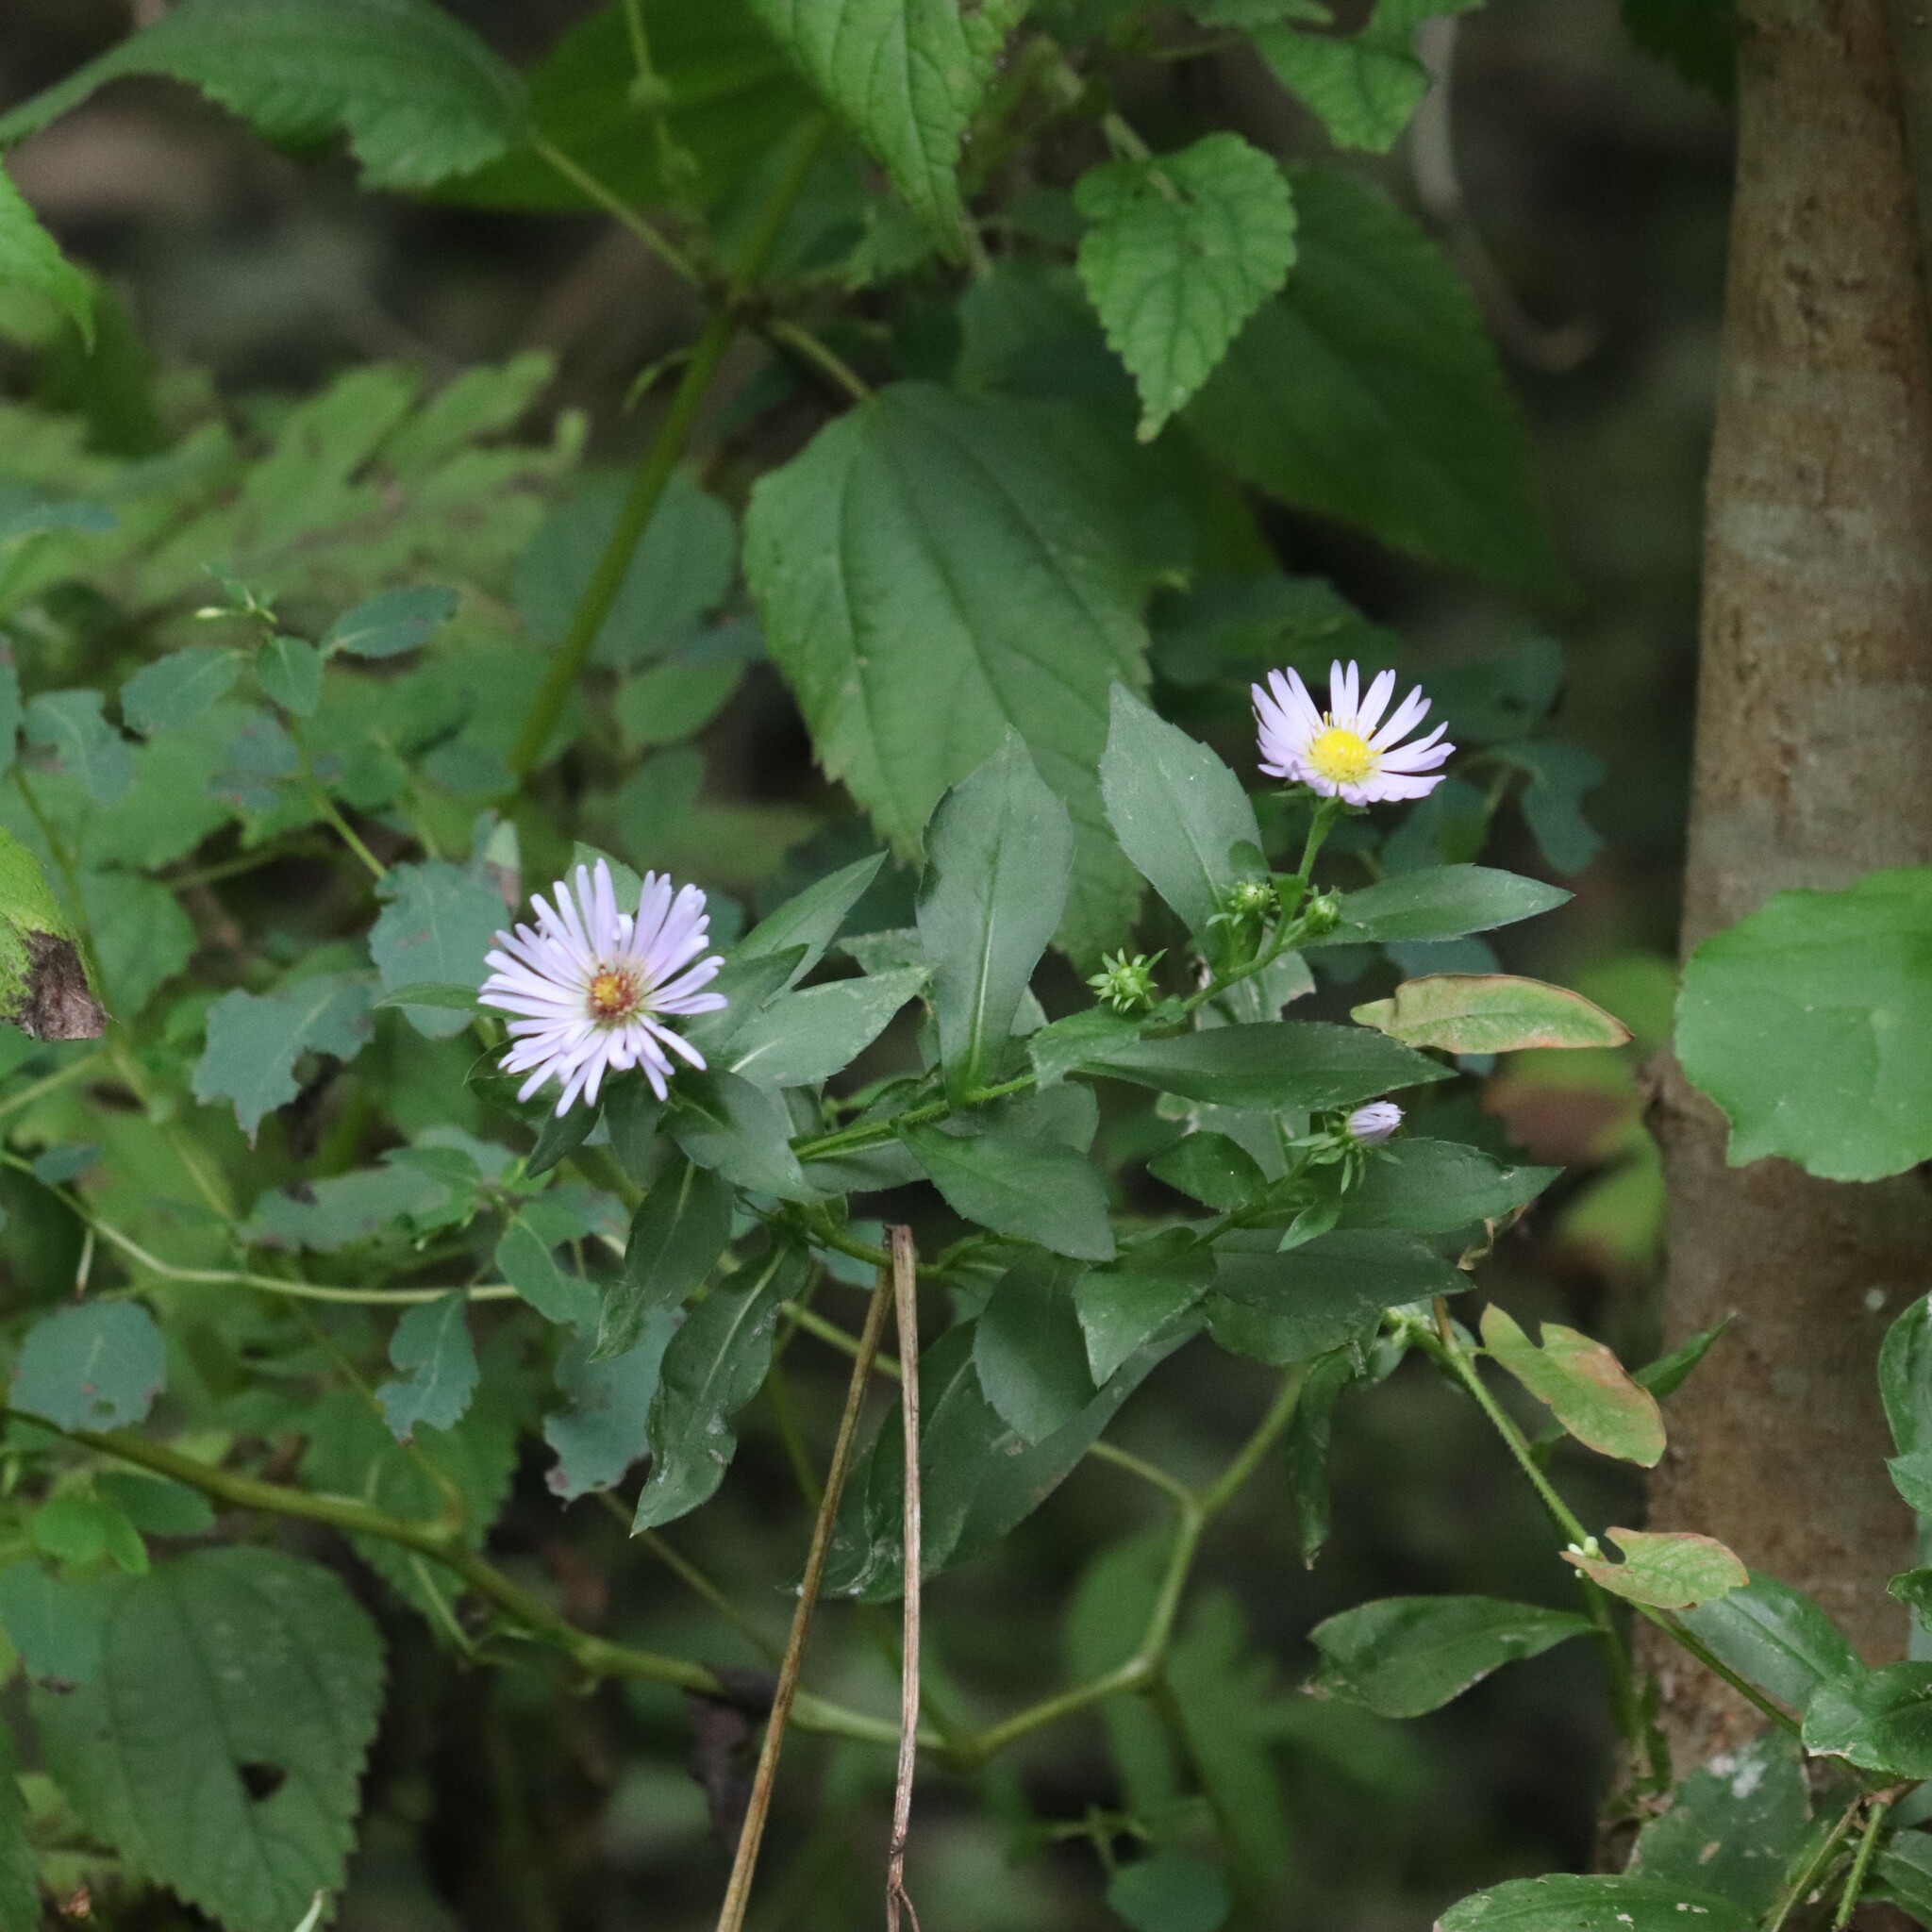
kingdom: Plantae
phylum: Tracheophyta
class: Magnoliopsida
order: Asterales
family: Asteraceae
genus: Symphyotrichum
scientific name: Symphyotrichum puniceum
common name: Bog aster
